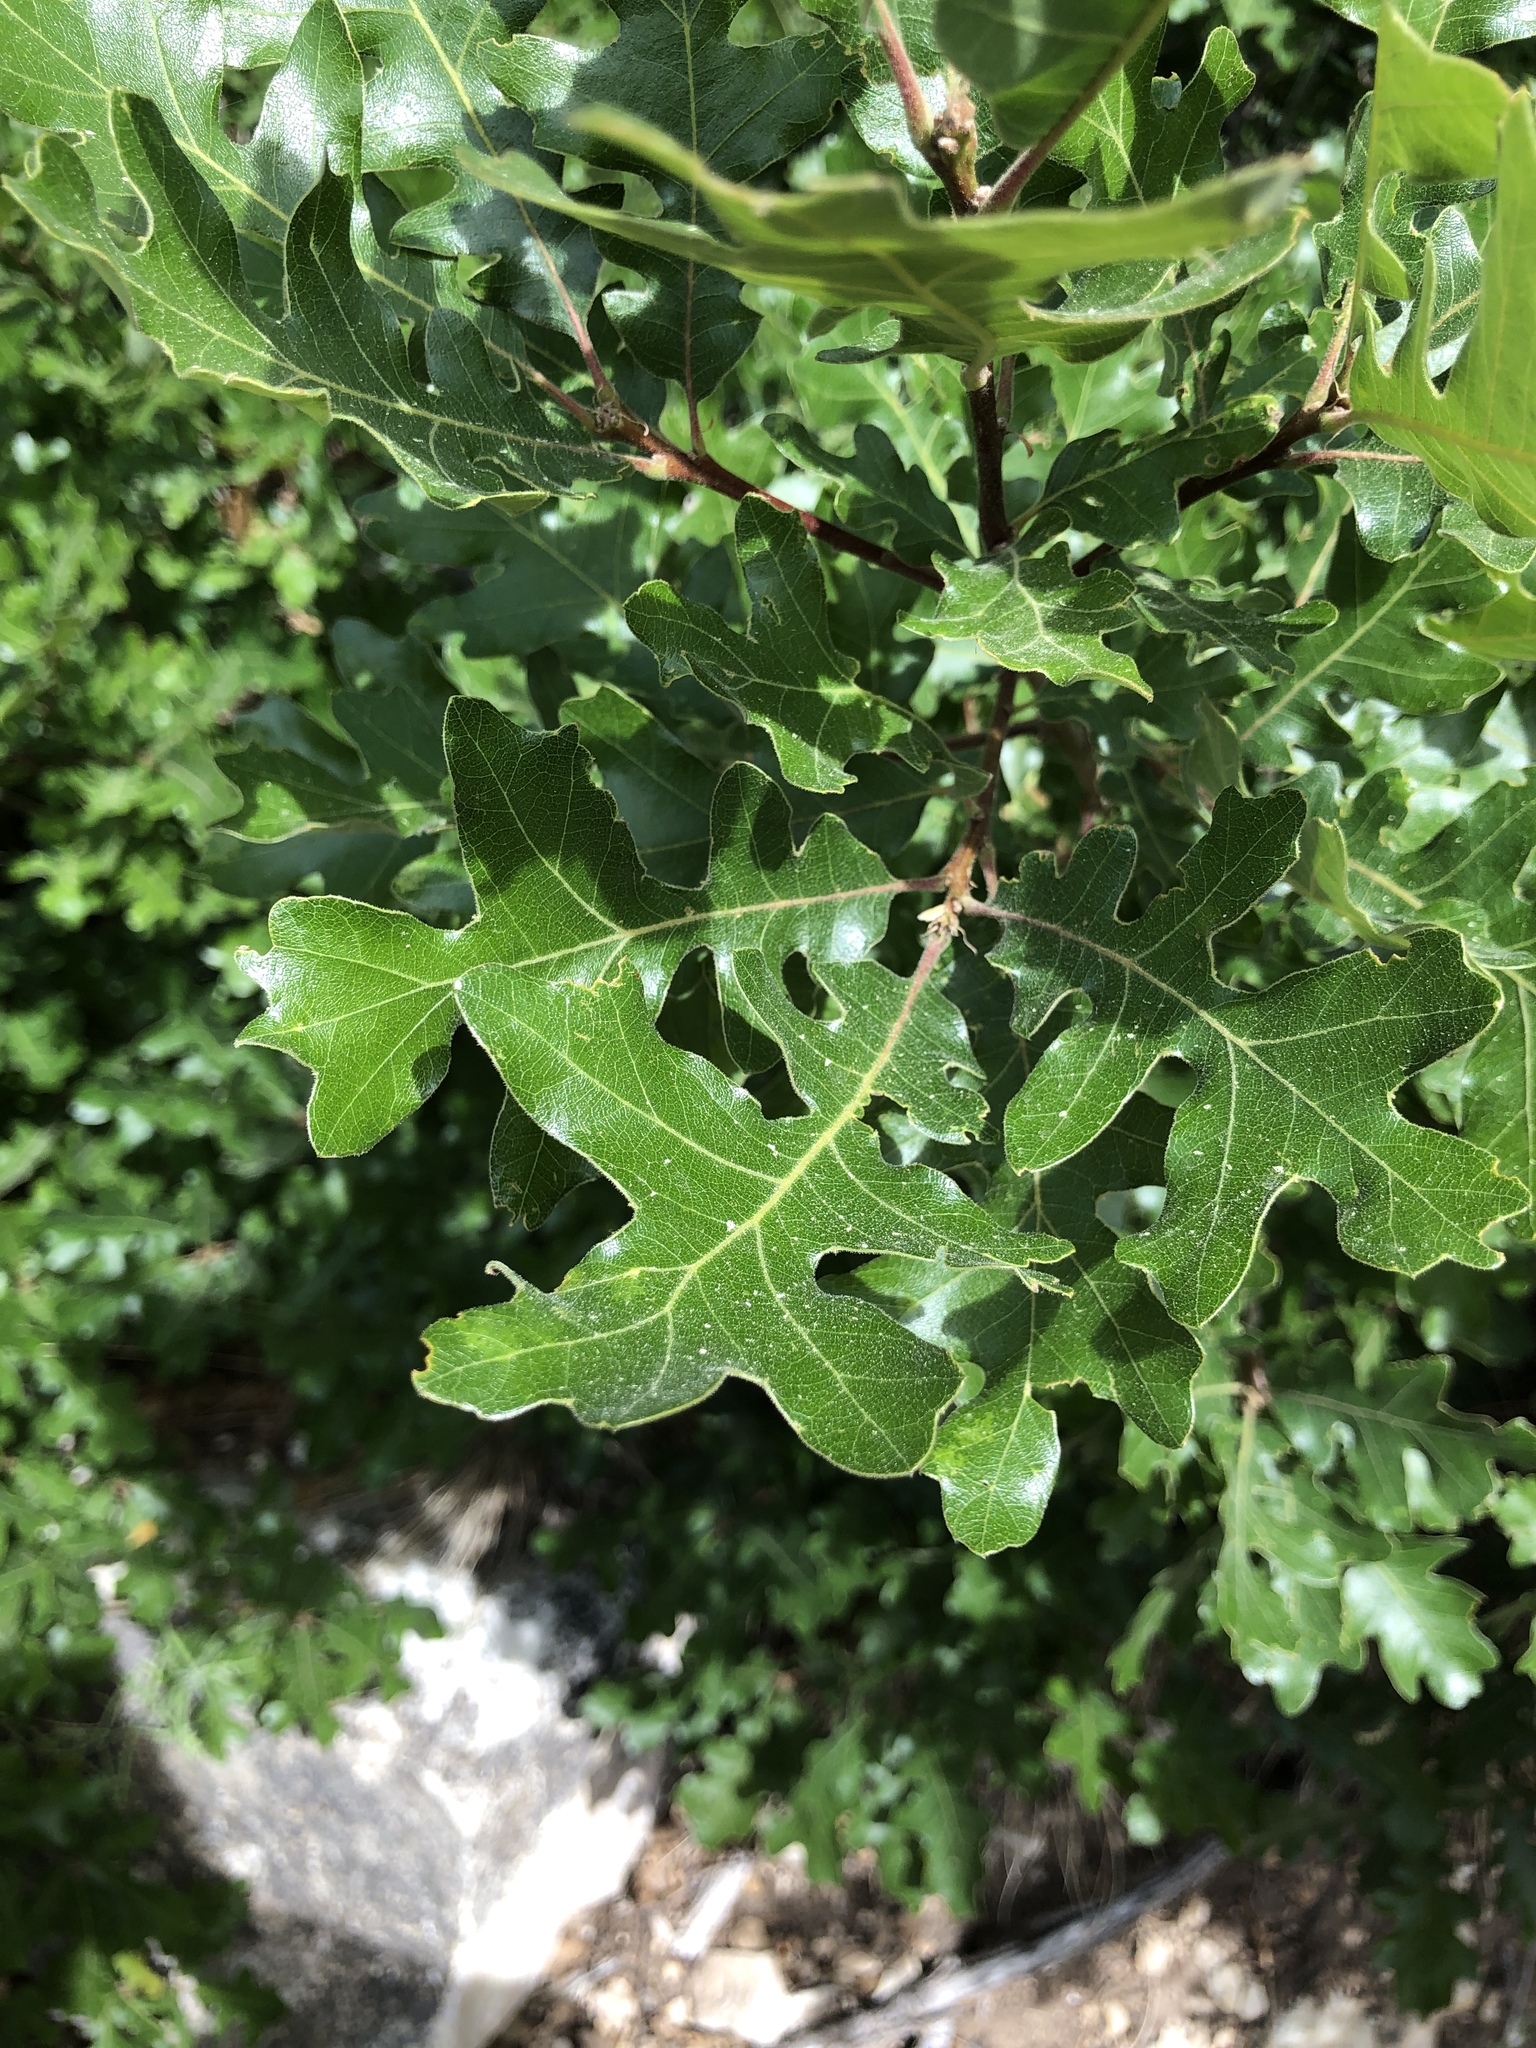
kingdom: Plantae
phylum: Tracheophyta
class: Magnoliopsida
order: Fagales
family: Fagaceae
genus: Quercus
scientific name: Quercus gambelii
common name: Gambel oak
